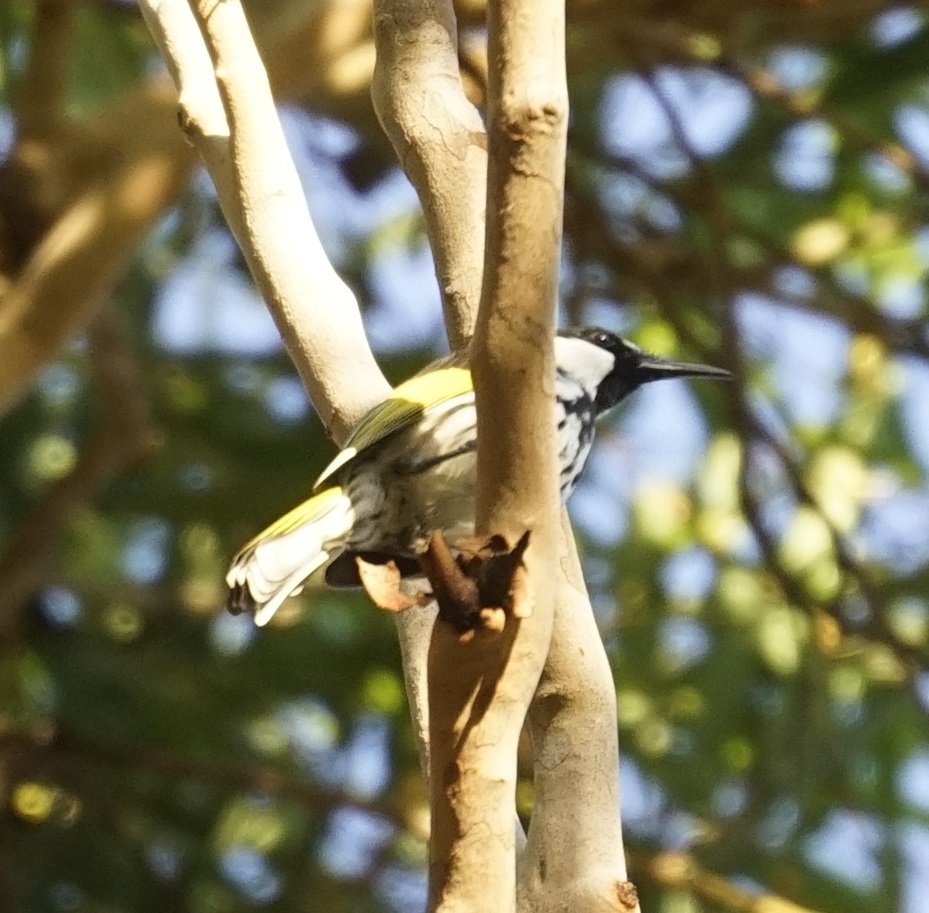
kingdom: Animalia
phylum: Chordata
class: Aves
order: Passeriformes
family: Meliphagidae
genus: Phylidonyris
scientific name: Phylidonyris niger
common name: White-cheeked honeyeater
